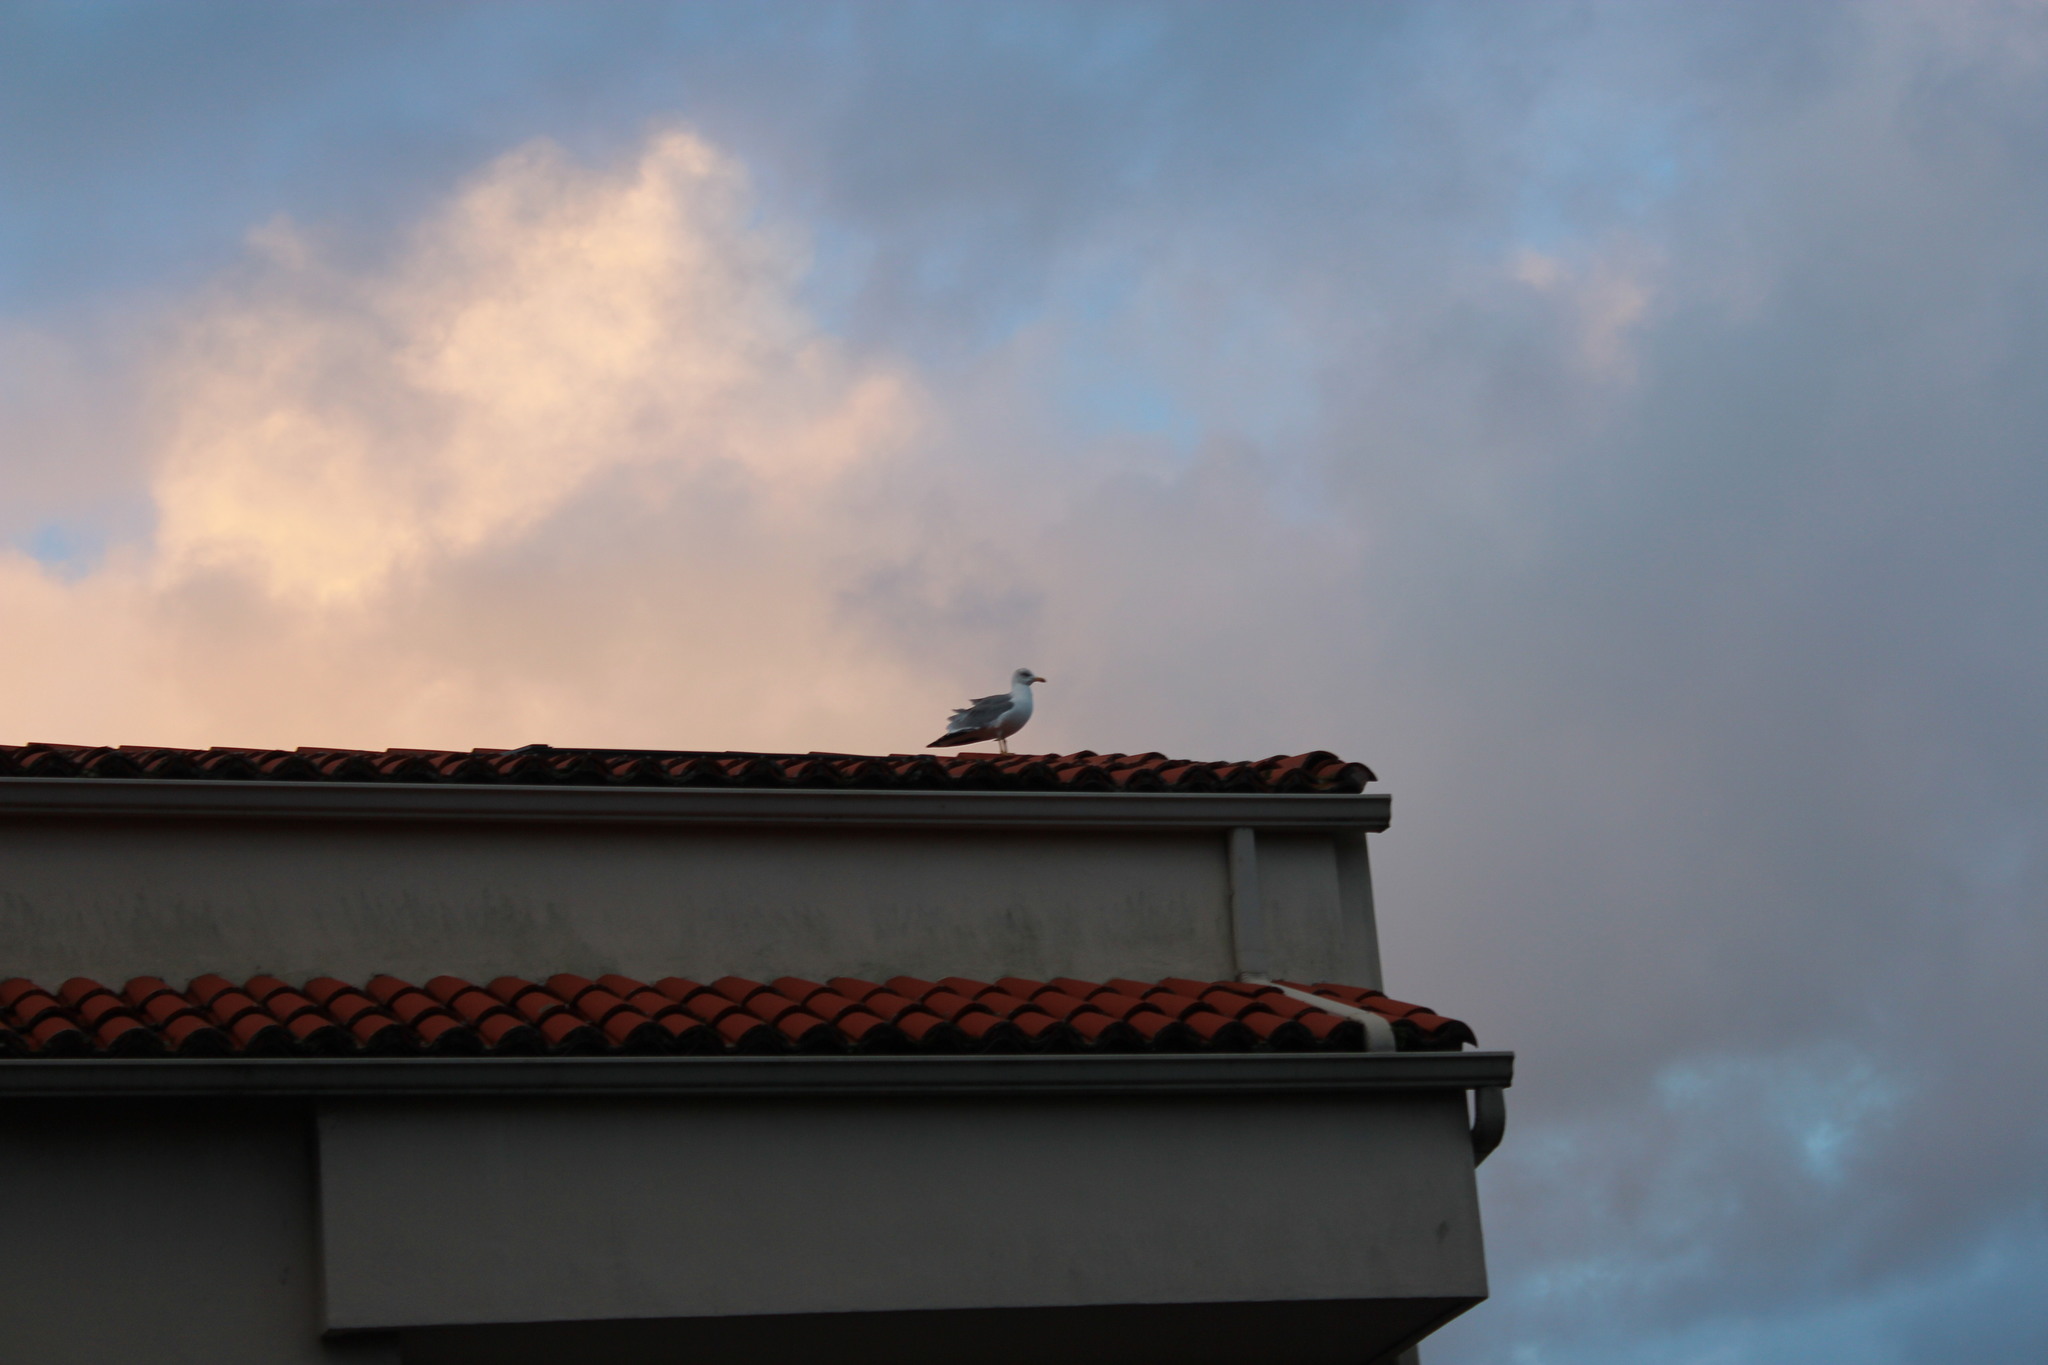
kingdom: Animalia
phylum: Chordata
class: Aves
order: Charadriiformes
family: Laridae
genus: Larus
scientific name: Larus michahellis
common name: Yellow-legged gull
